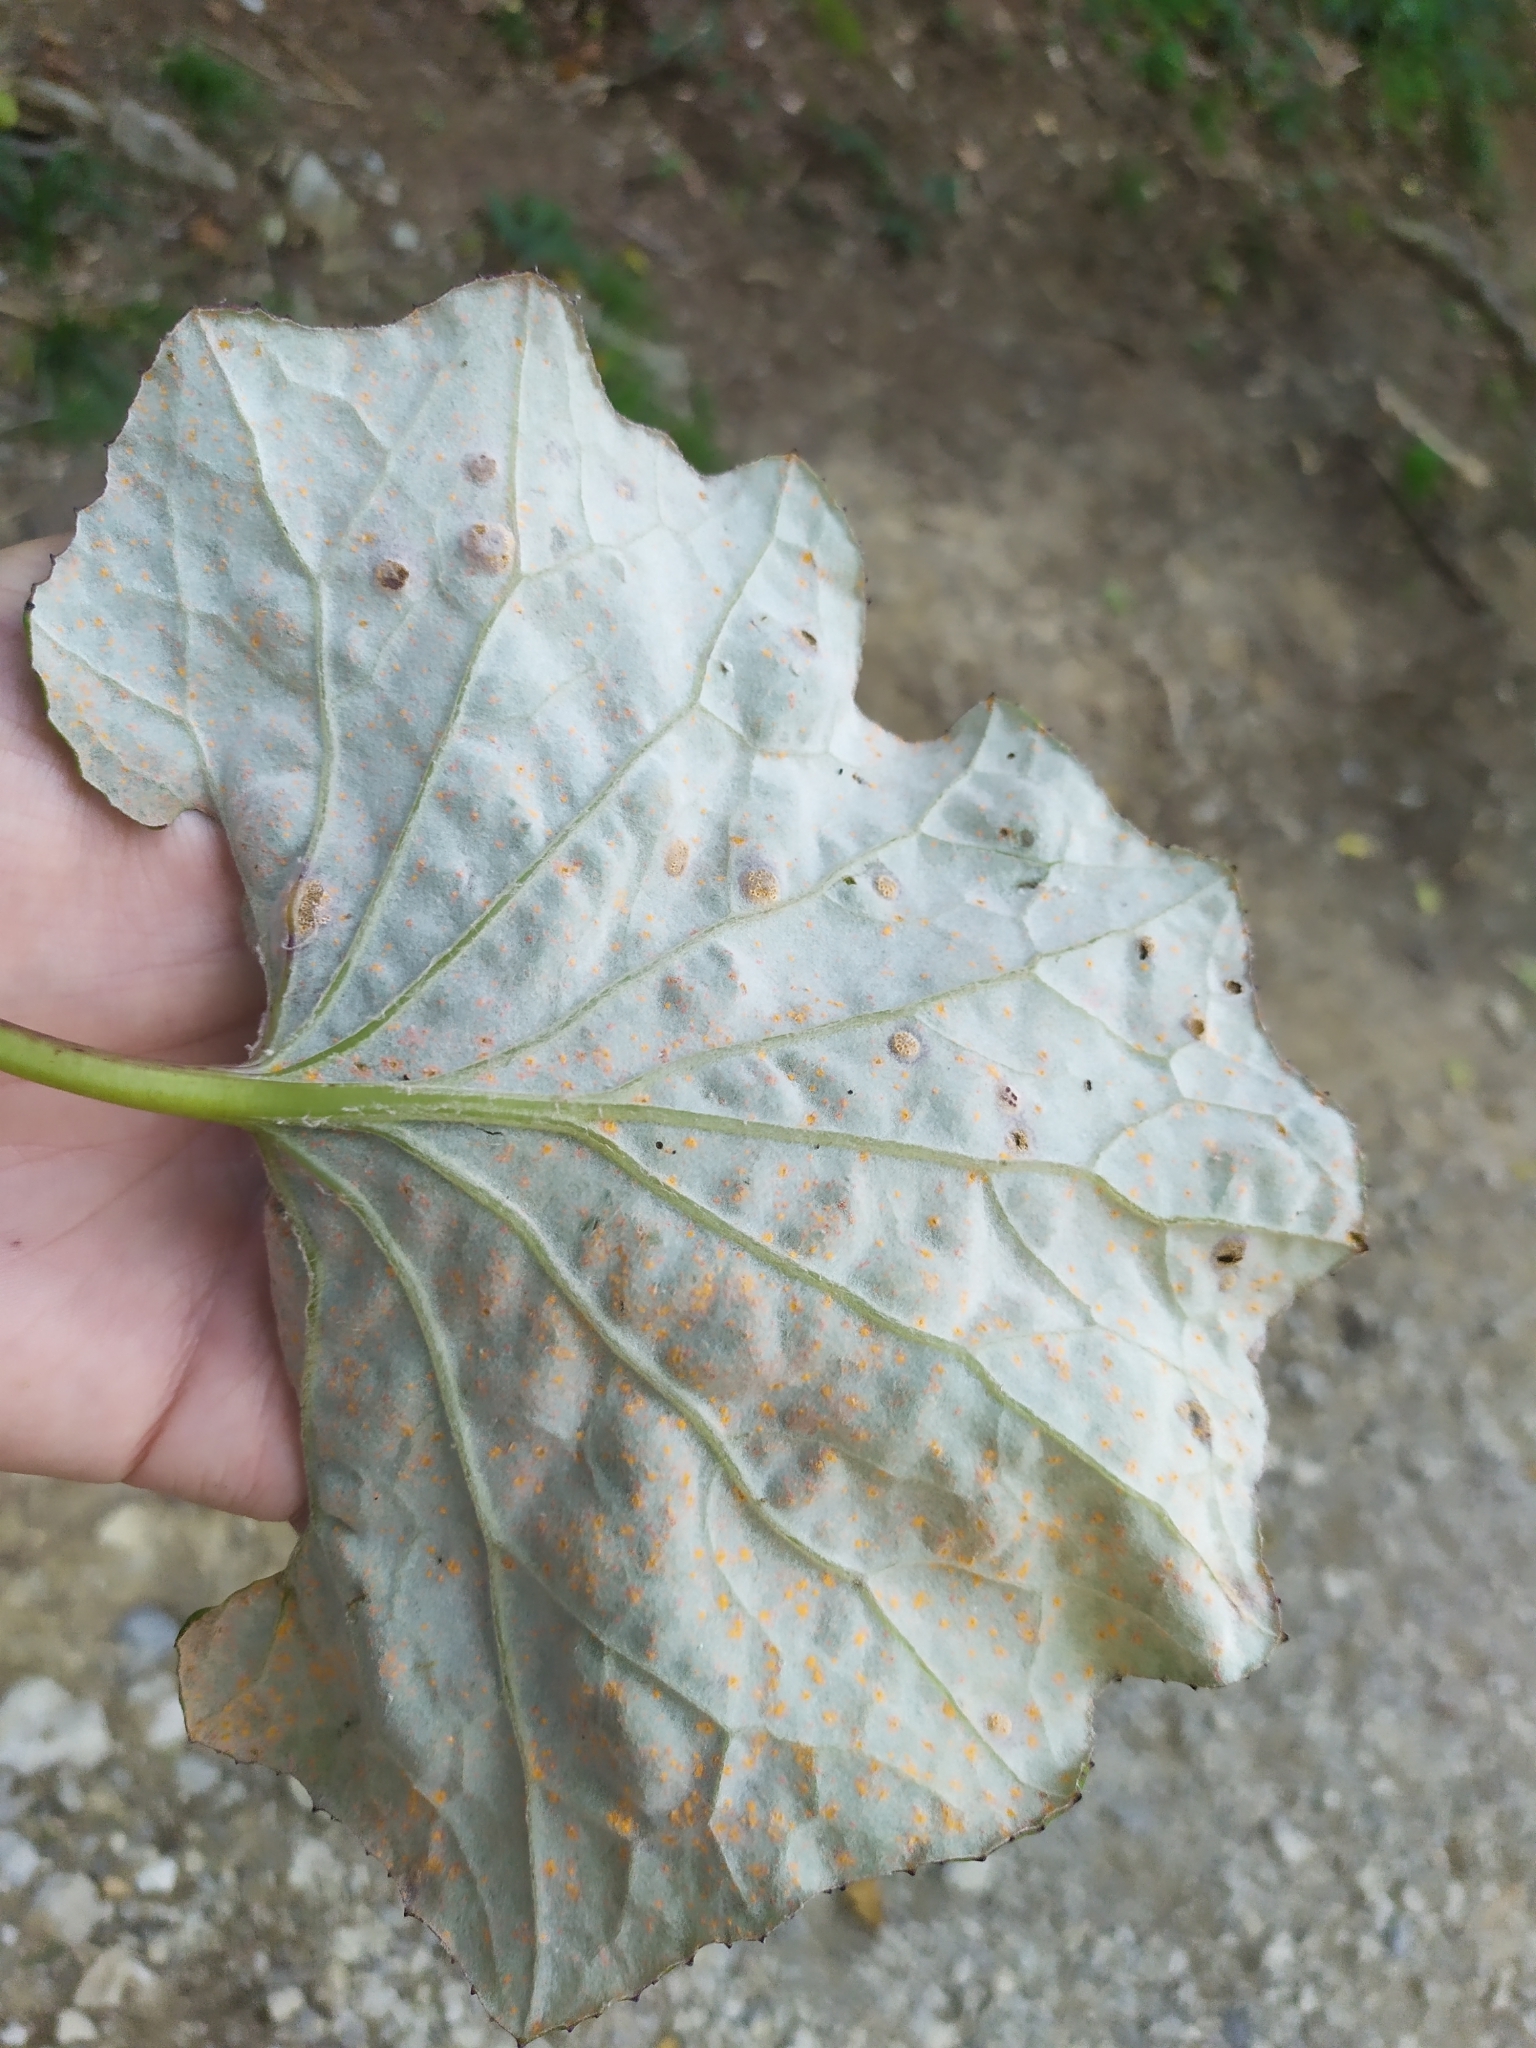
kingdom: Fungi
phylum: Basidiomycota
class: Pucciniomycetes
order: Pucciniales
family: Coleosporiaceae
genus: Coleosporium
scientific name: Coleosporium tussilaginis
